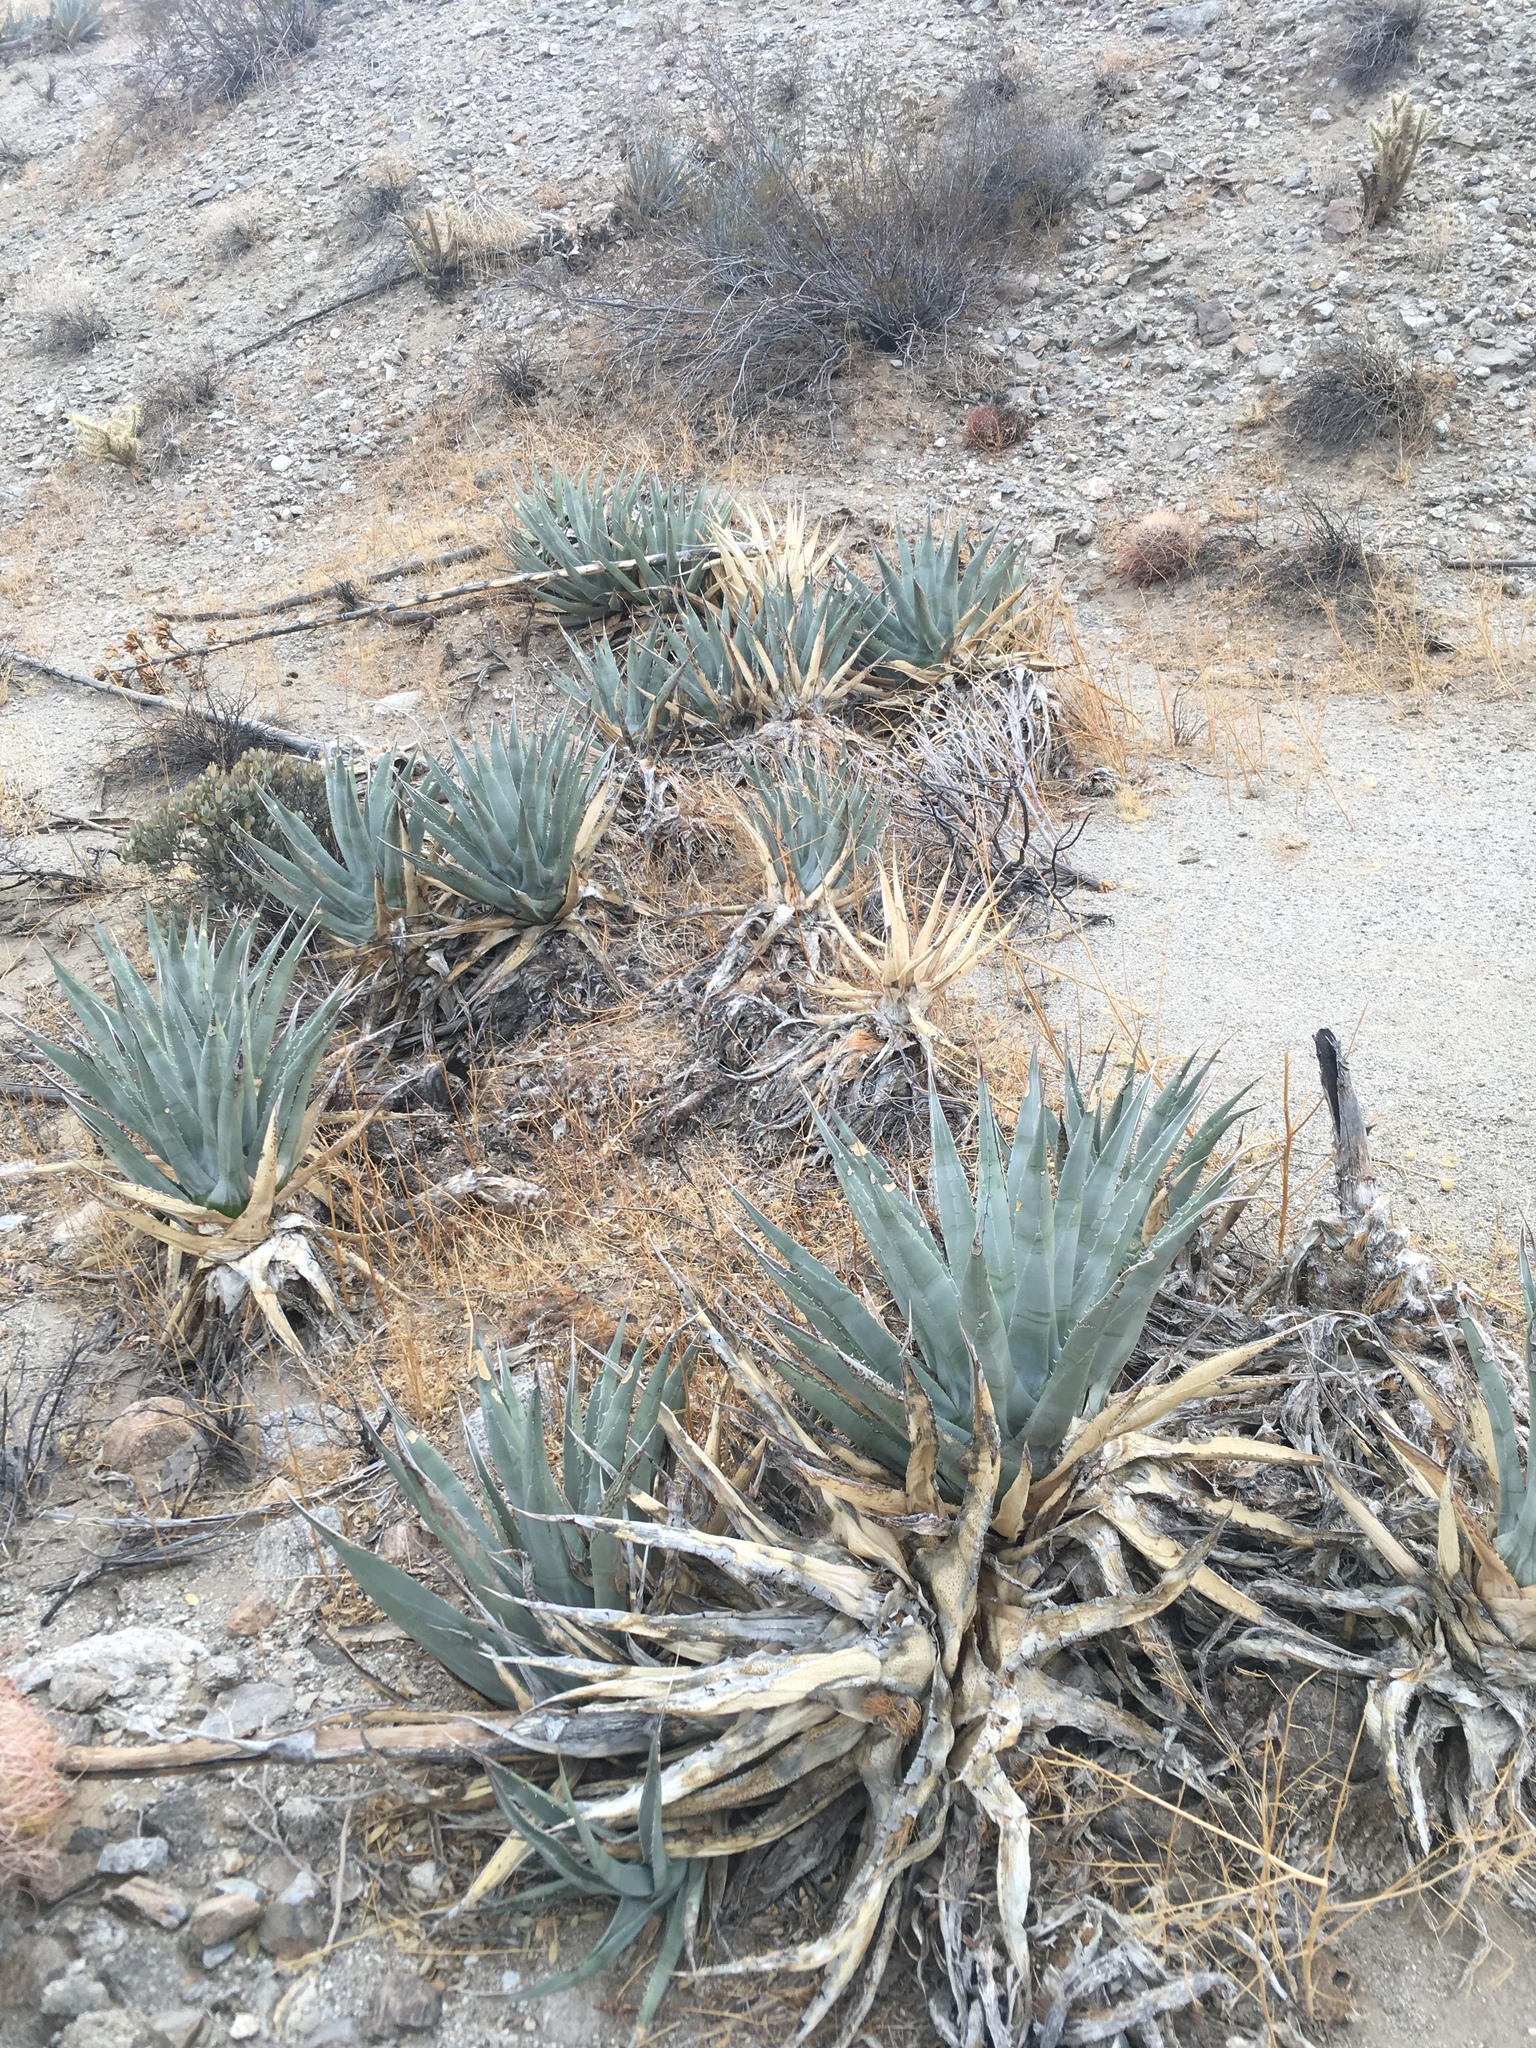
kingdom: Plantae
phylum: Tracheophyta
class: Liliopsida
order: Asparagales
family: Asparagaceae
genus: Agave
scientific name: Agave deserti
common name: Desert agave
